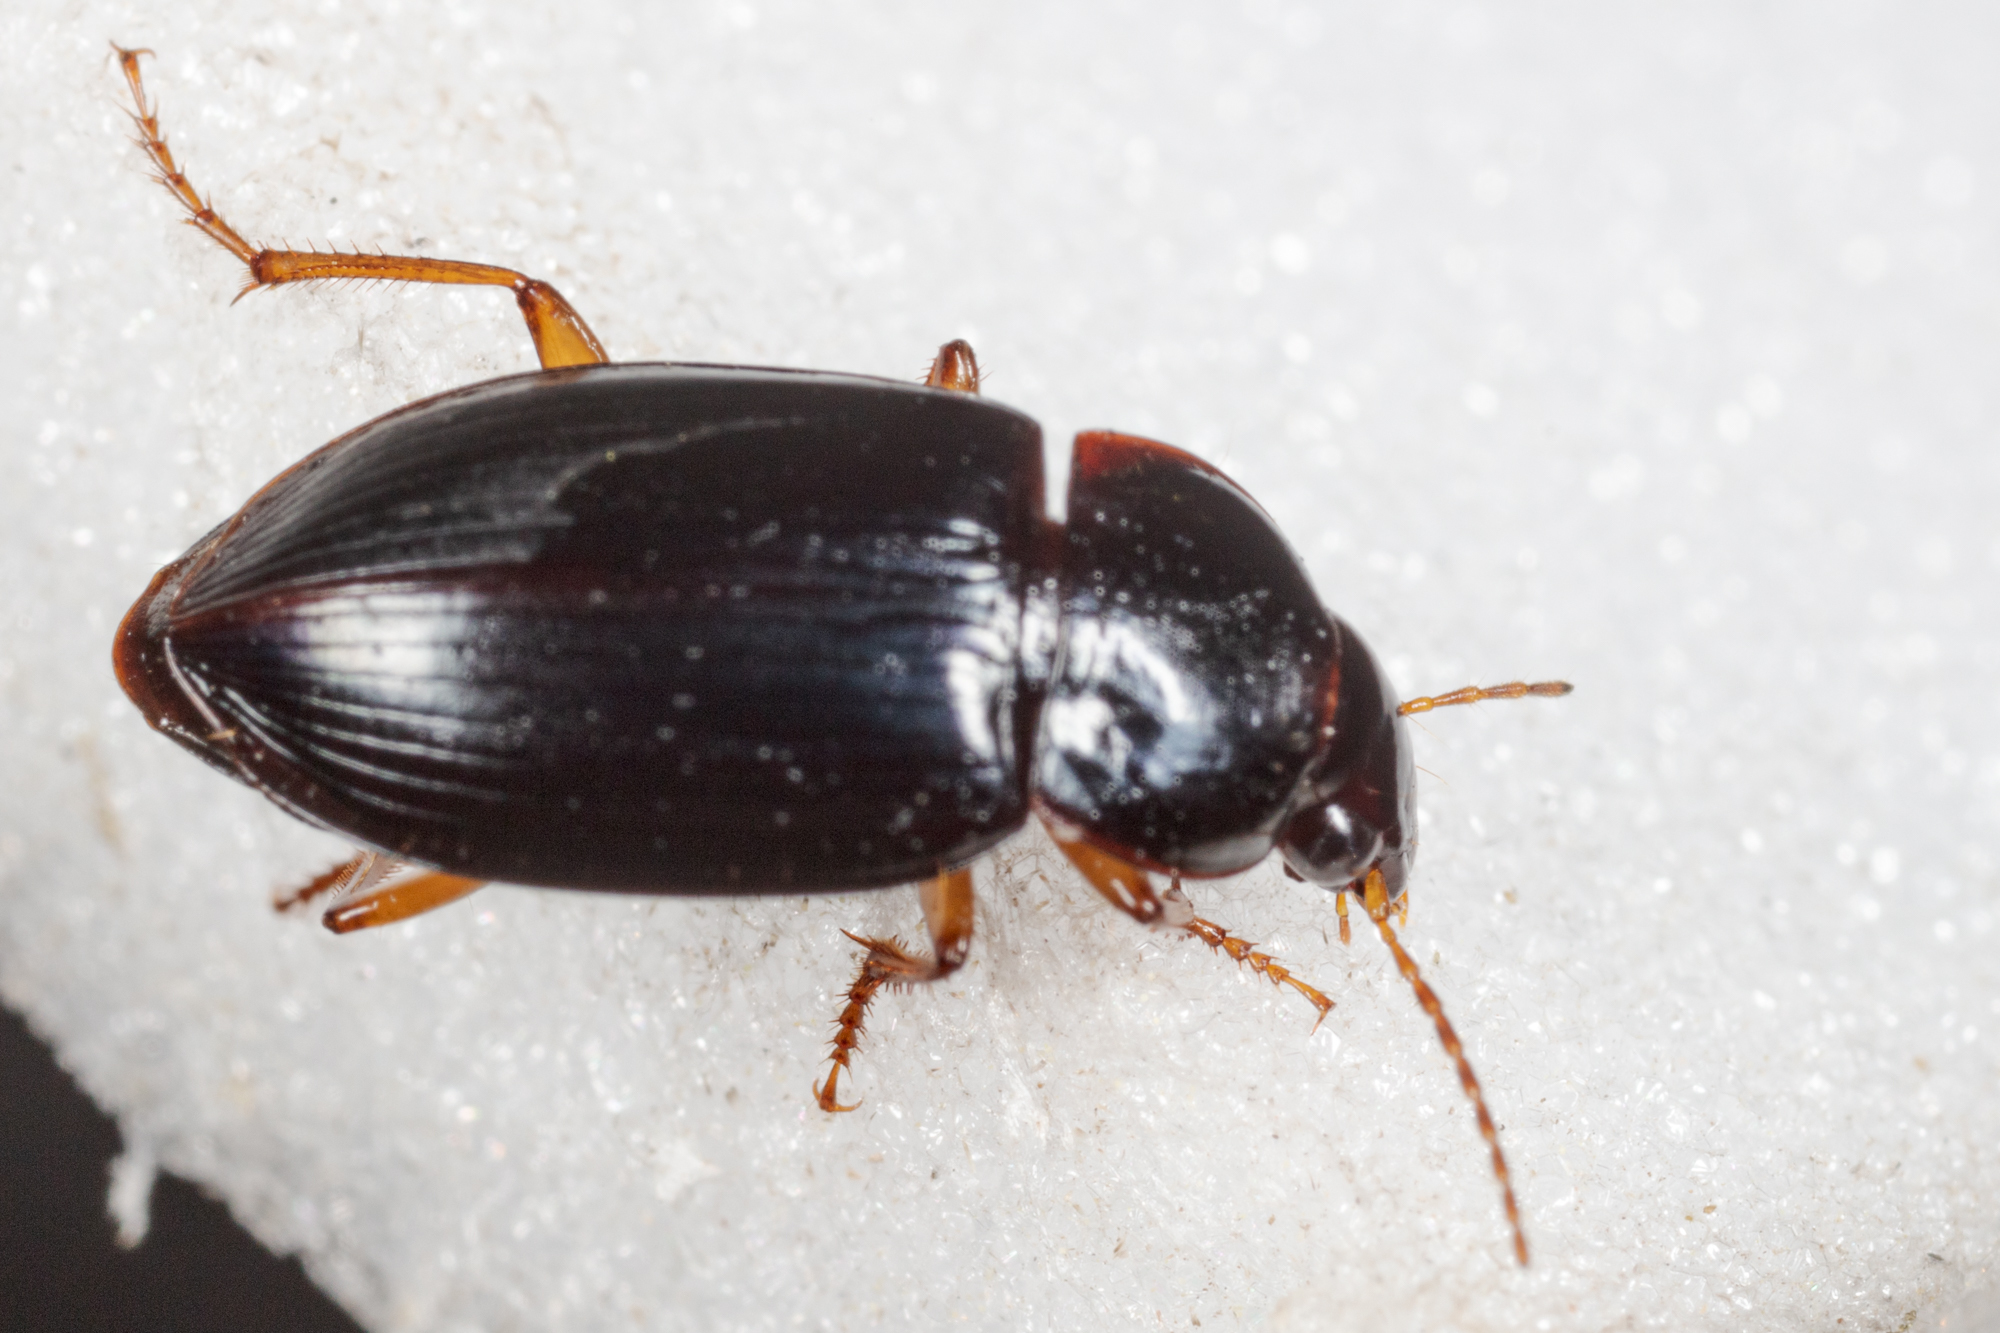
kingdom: Animalia
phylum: Arthropoda
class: Insecta
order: Coleoptera
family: Carabidae
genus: Notiobia
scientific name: Notiobia terminata
